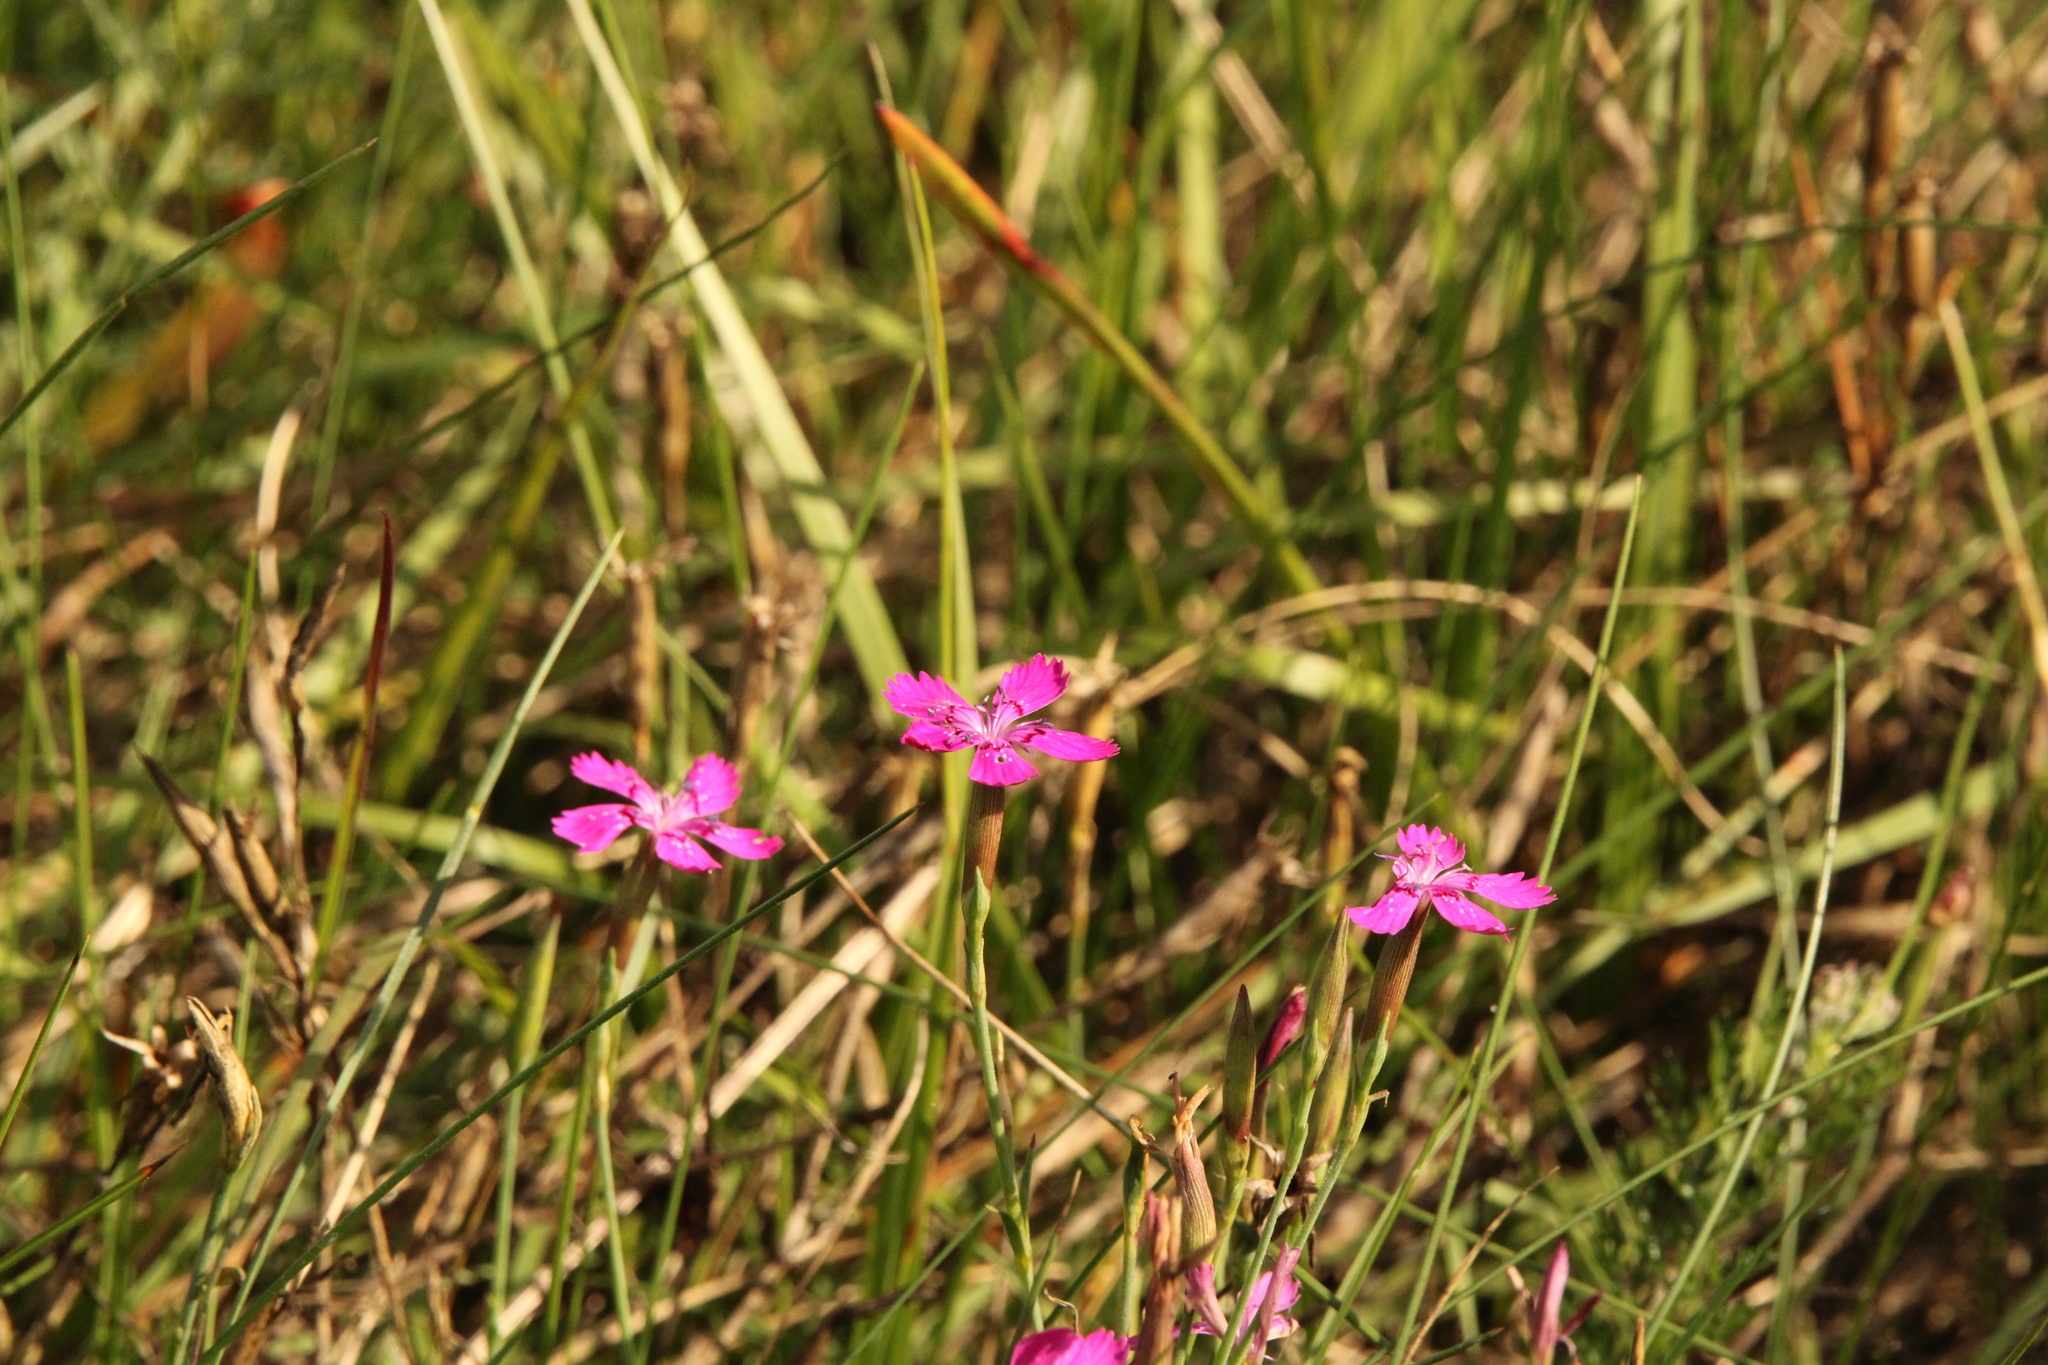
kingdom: Plantae
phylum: Tracheophyta
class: Magnoliopsida
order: Caryophyllales
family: Caryophyllaceae
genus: Dianthus
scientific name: Dianthus deltoides
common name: Maiden pink
